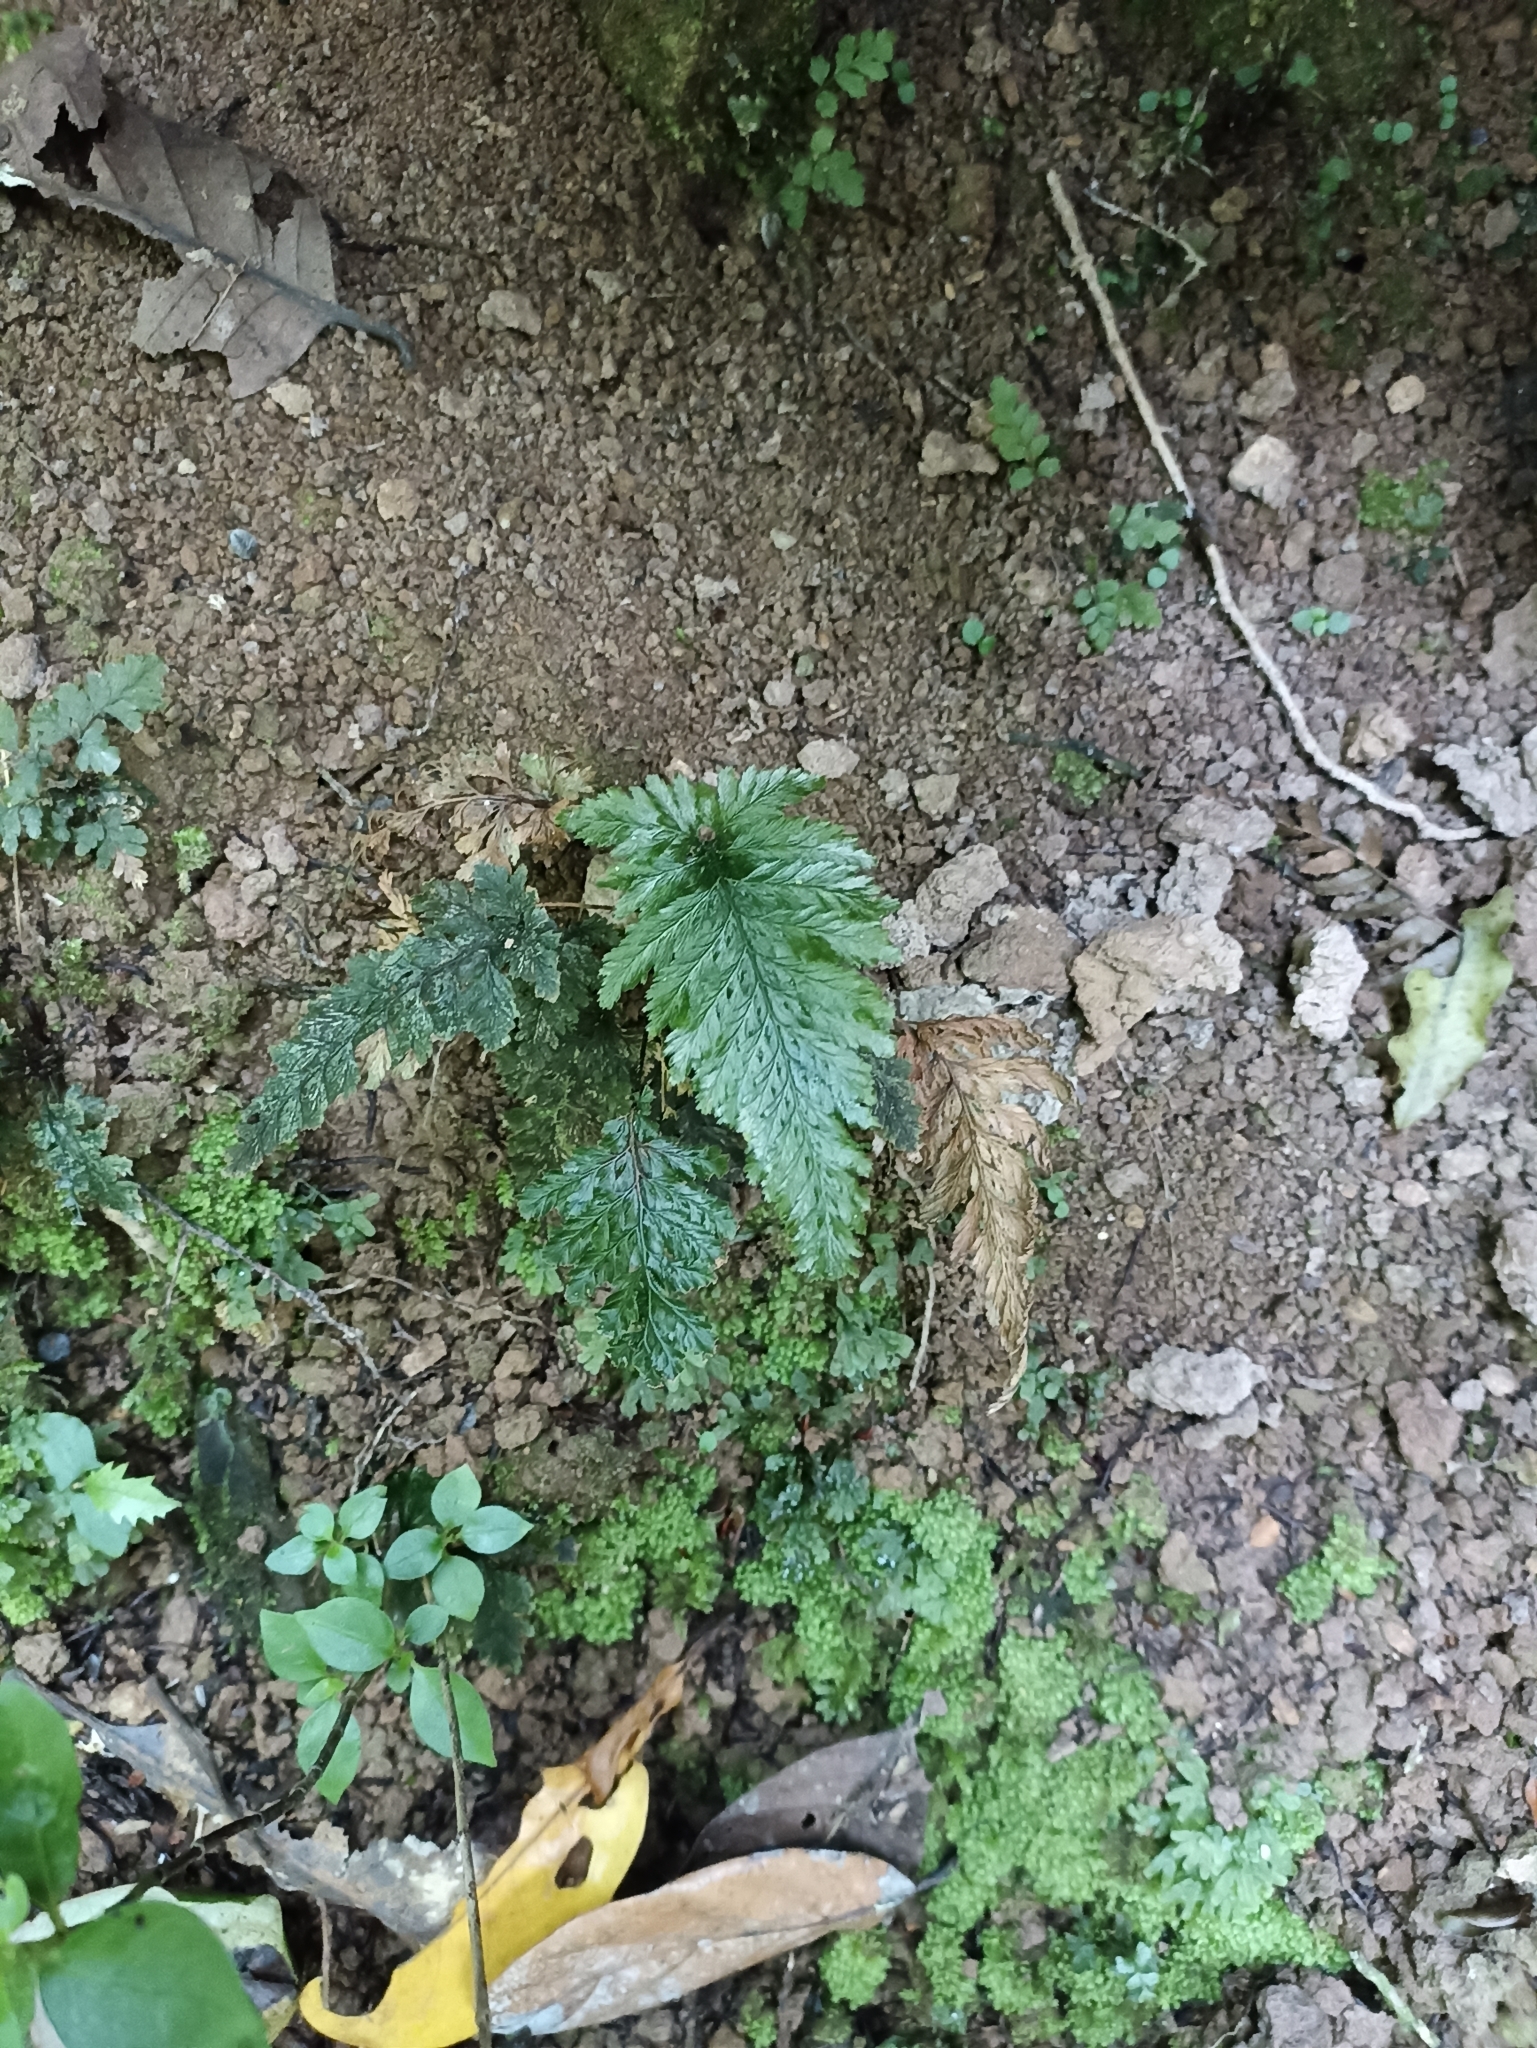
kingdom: Plantae
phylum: Tracheophyta
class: Polypodiopsida
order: Hymenophyllales
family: Hymenophyllaceae
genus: Abrodictyum
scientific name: Abrodictyum elongatum
